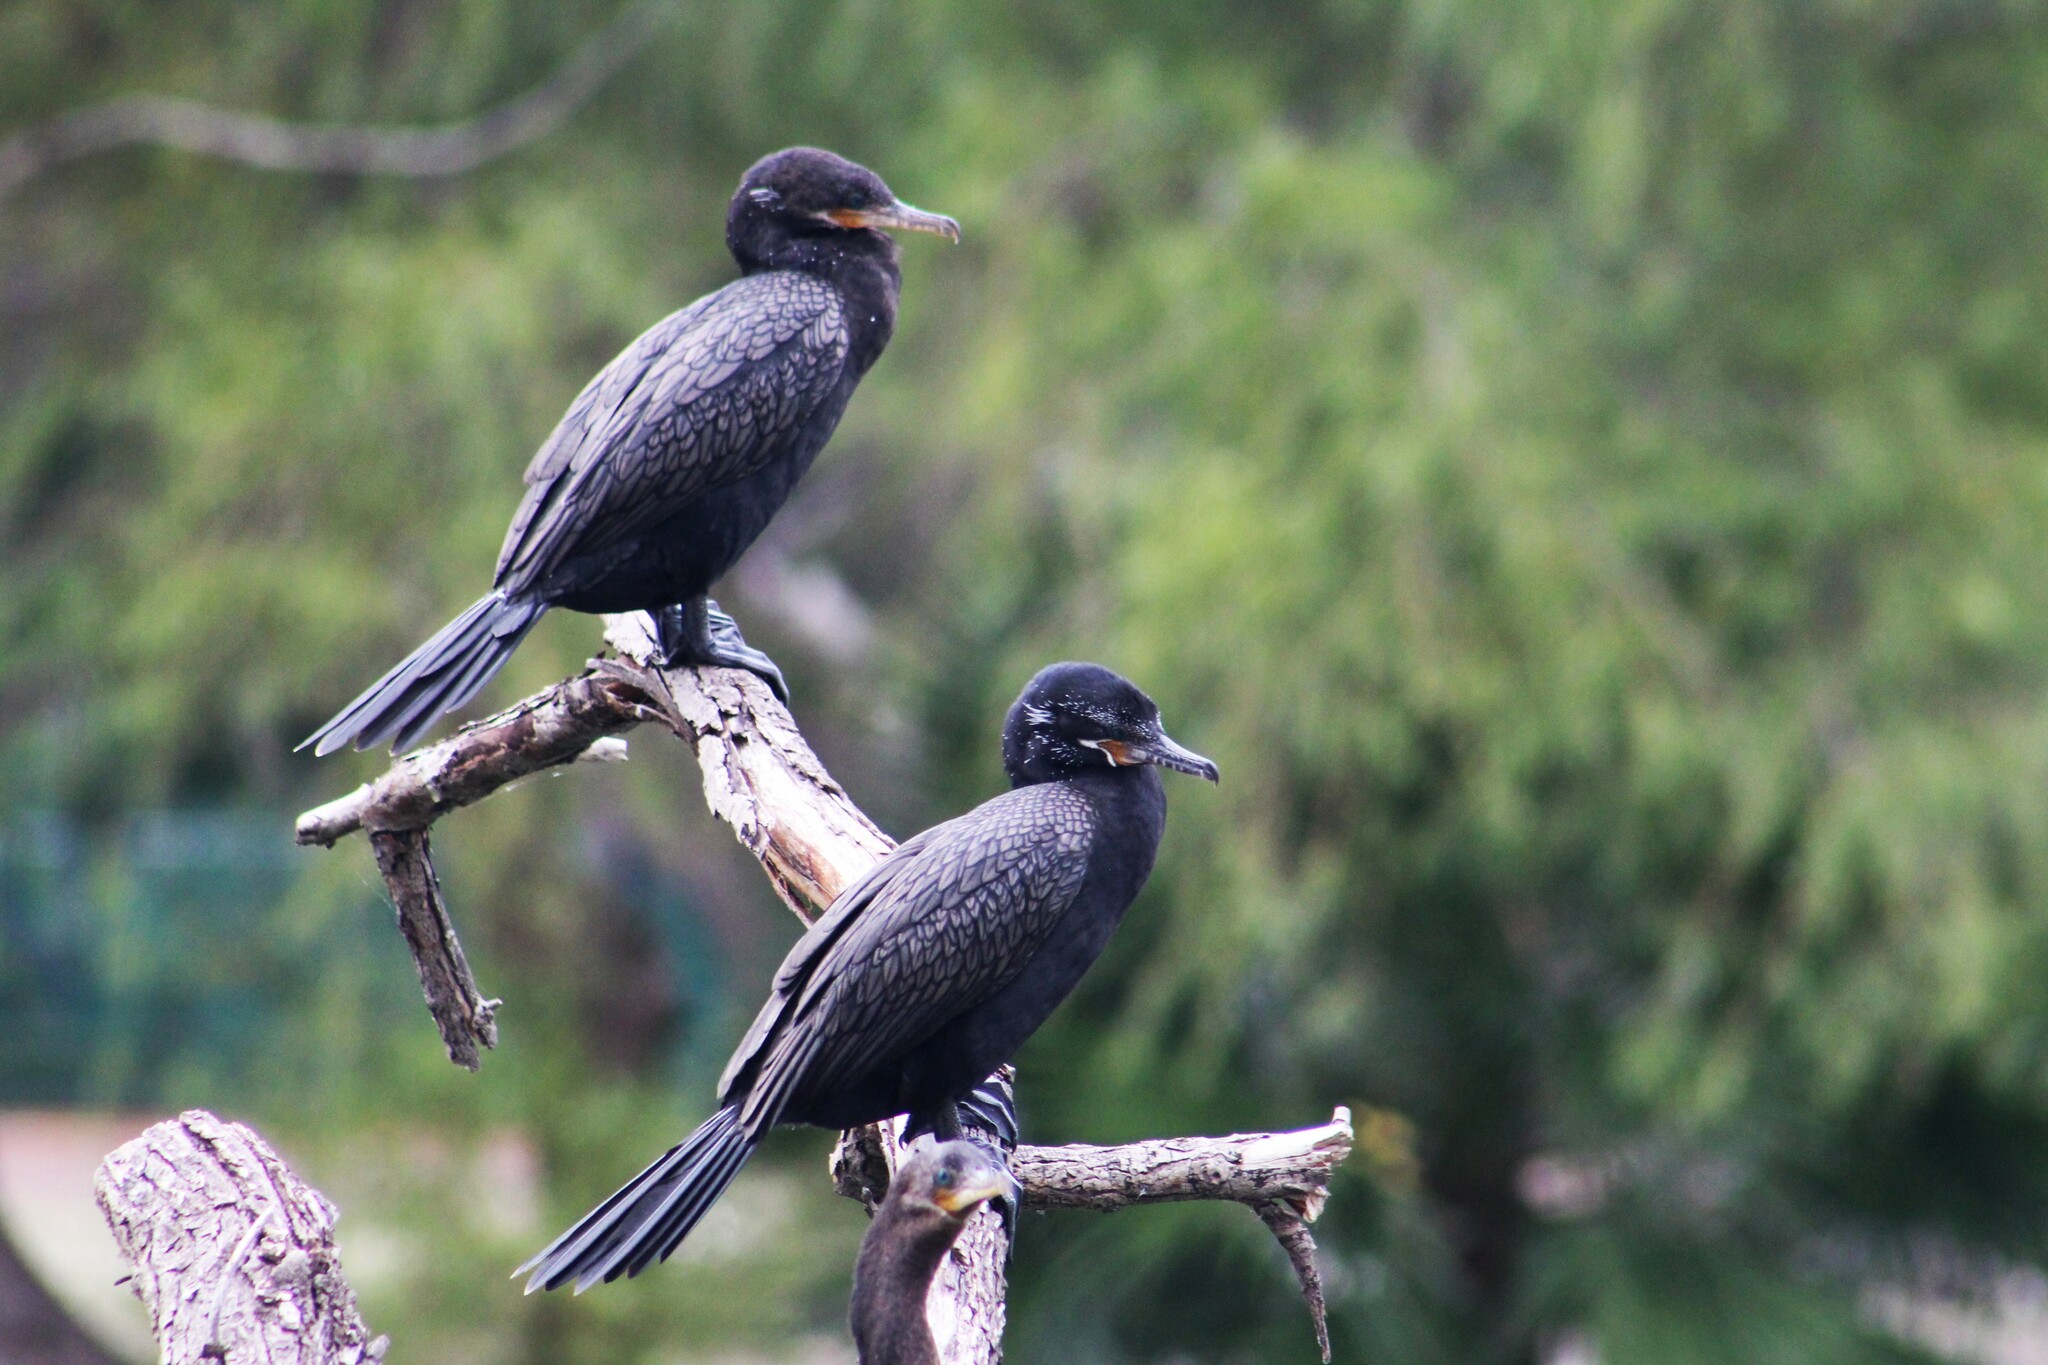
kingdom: Animalia
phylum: Chordata
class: Aves
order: Suliformes
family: Phalacrocoracidae
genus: Phalacrocorax
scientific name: Phalacrocorax brasilianus
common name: Neotropic cormorant
